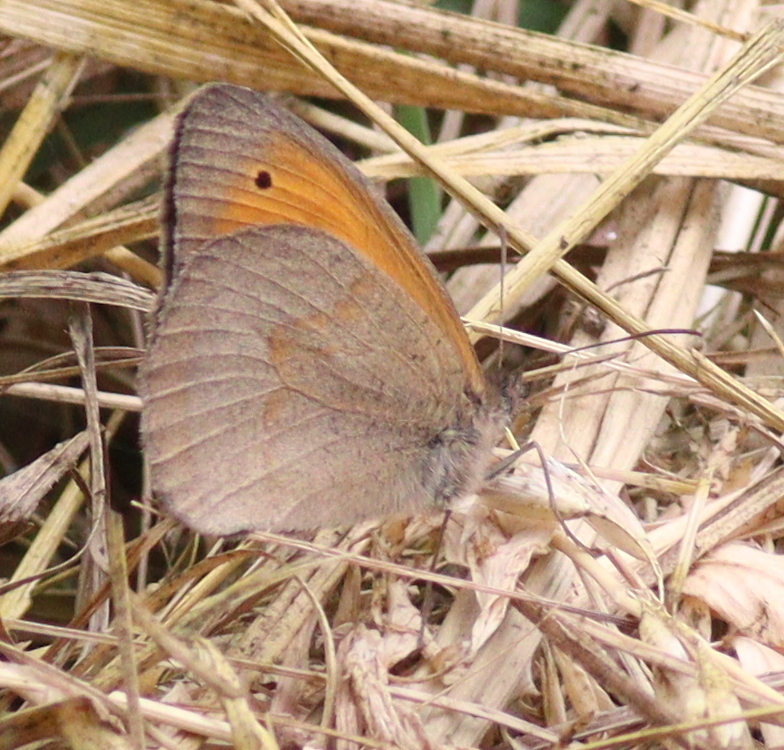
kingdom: Animalia
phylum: Arthropoda
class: Insecta
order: Lepidoptera
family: Nymphalidae
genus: Maniola
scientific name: Maniola jurtina
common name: Meadow brown
